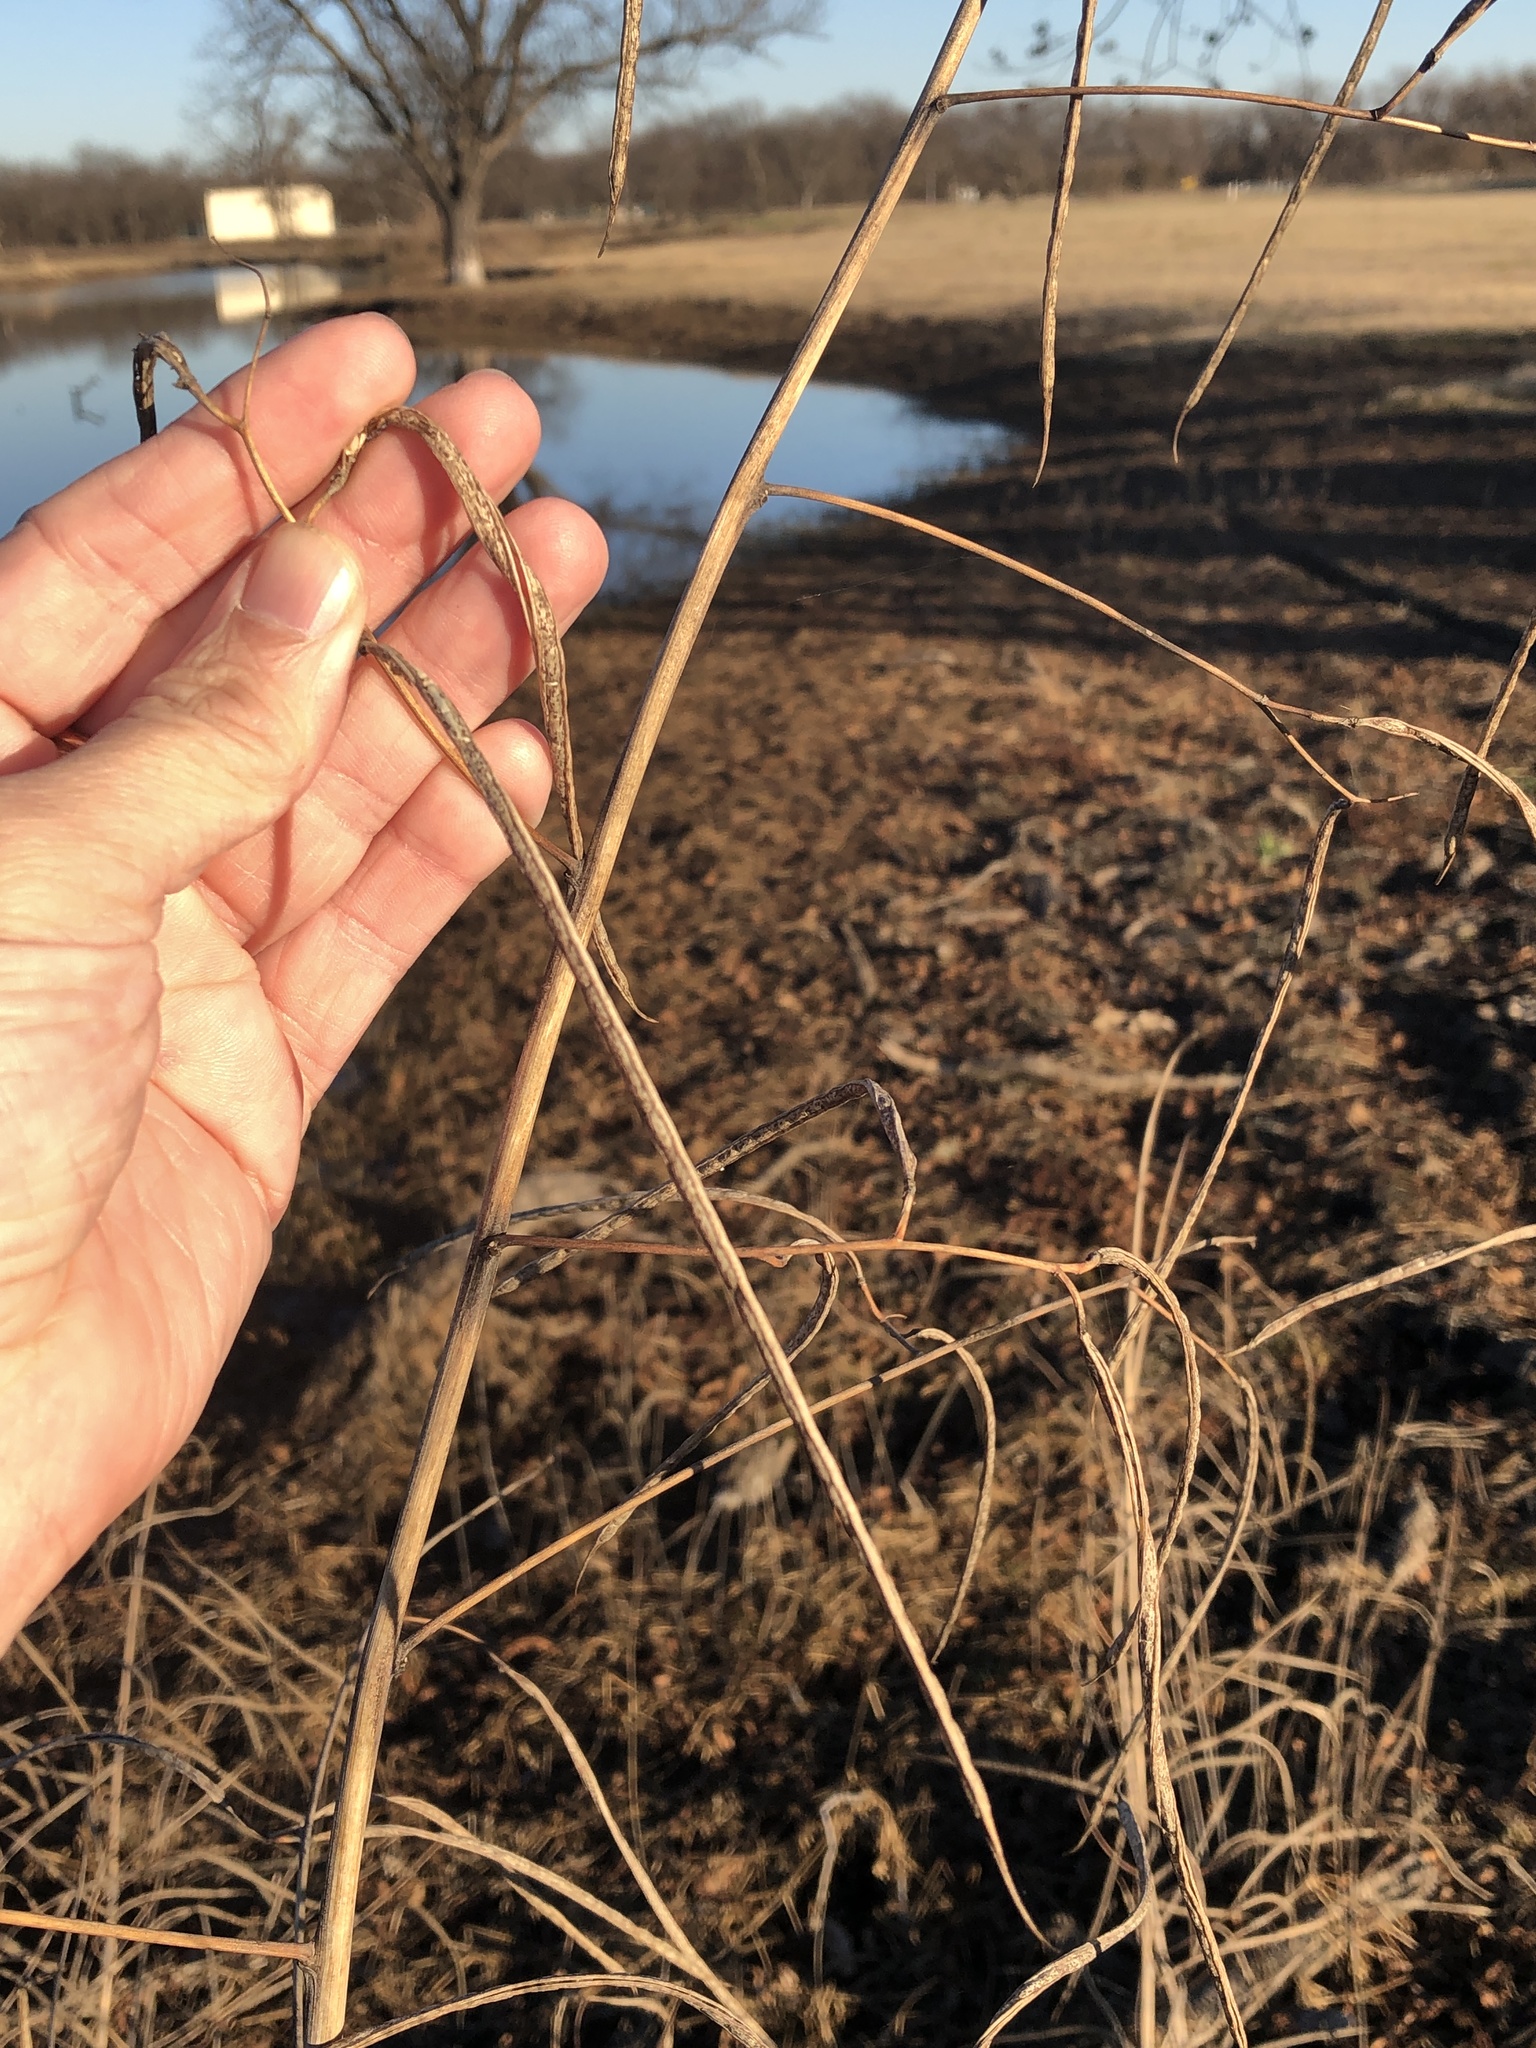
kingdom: Plantae
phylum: Tracheophyta
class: Magnoliopsida
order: Fabales
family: Fabaceae
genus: Sesbania
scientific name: Sesbania herbacea
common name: Bigpod sesbania
